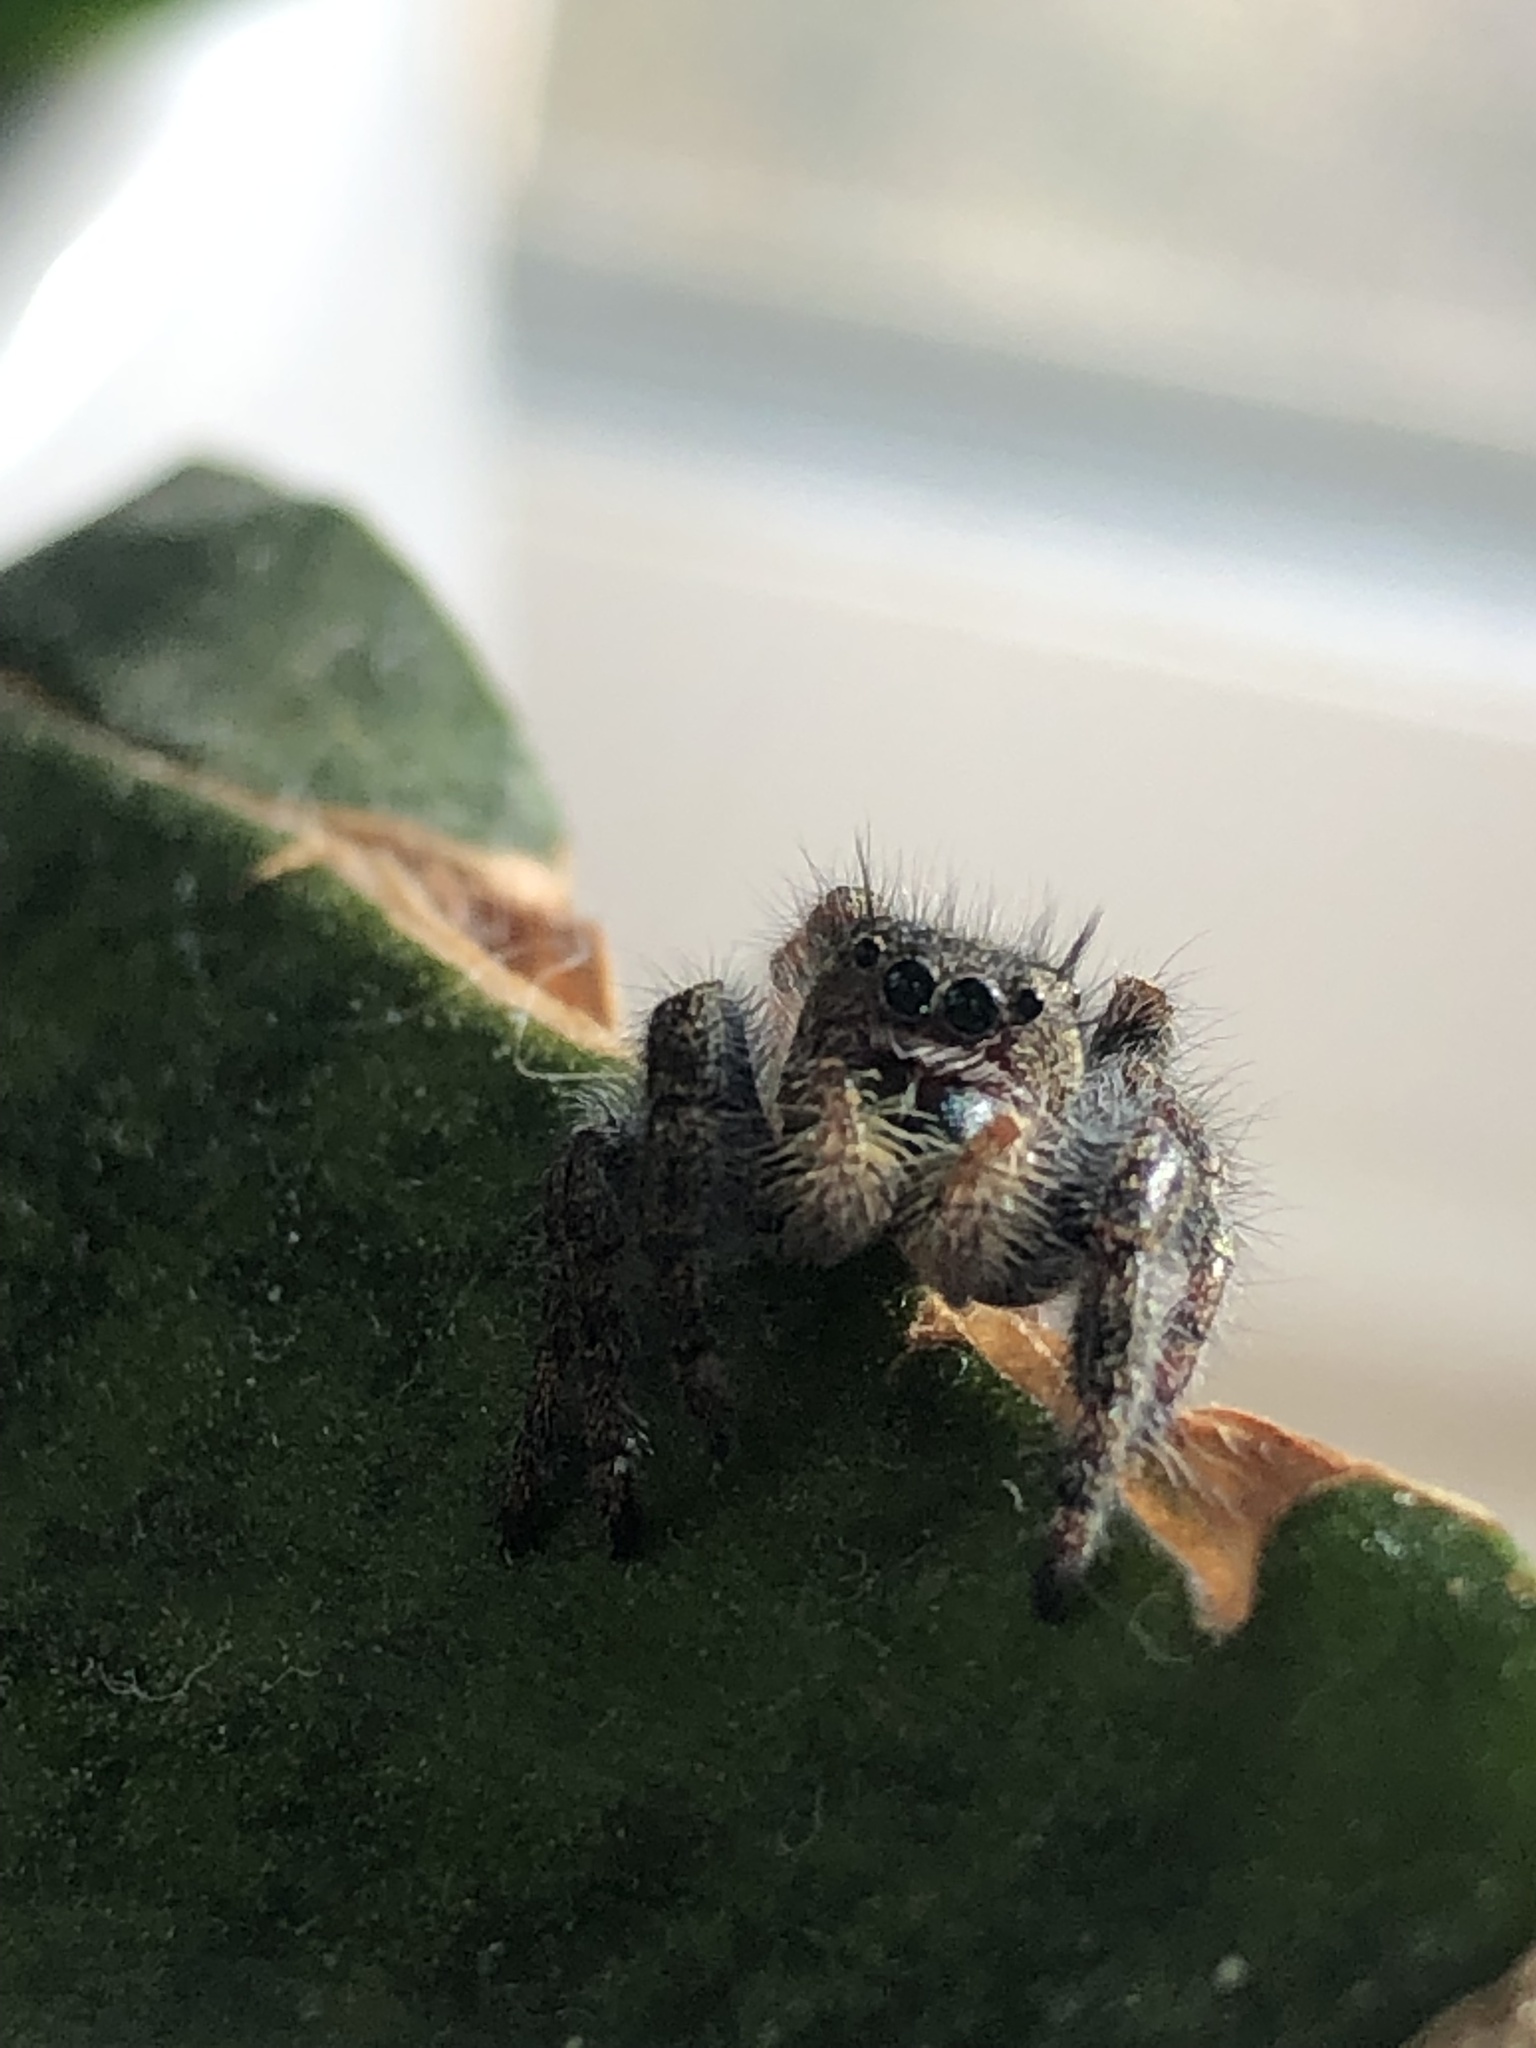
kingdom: Animalia
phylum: Arthropoda
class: Arachnida
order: Araneae
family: Salticidae
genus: Phidippus
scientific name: Phidippus audax
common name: Bold jumper
